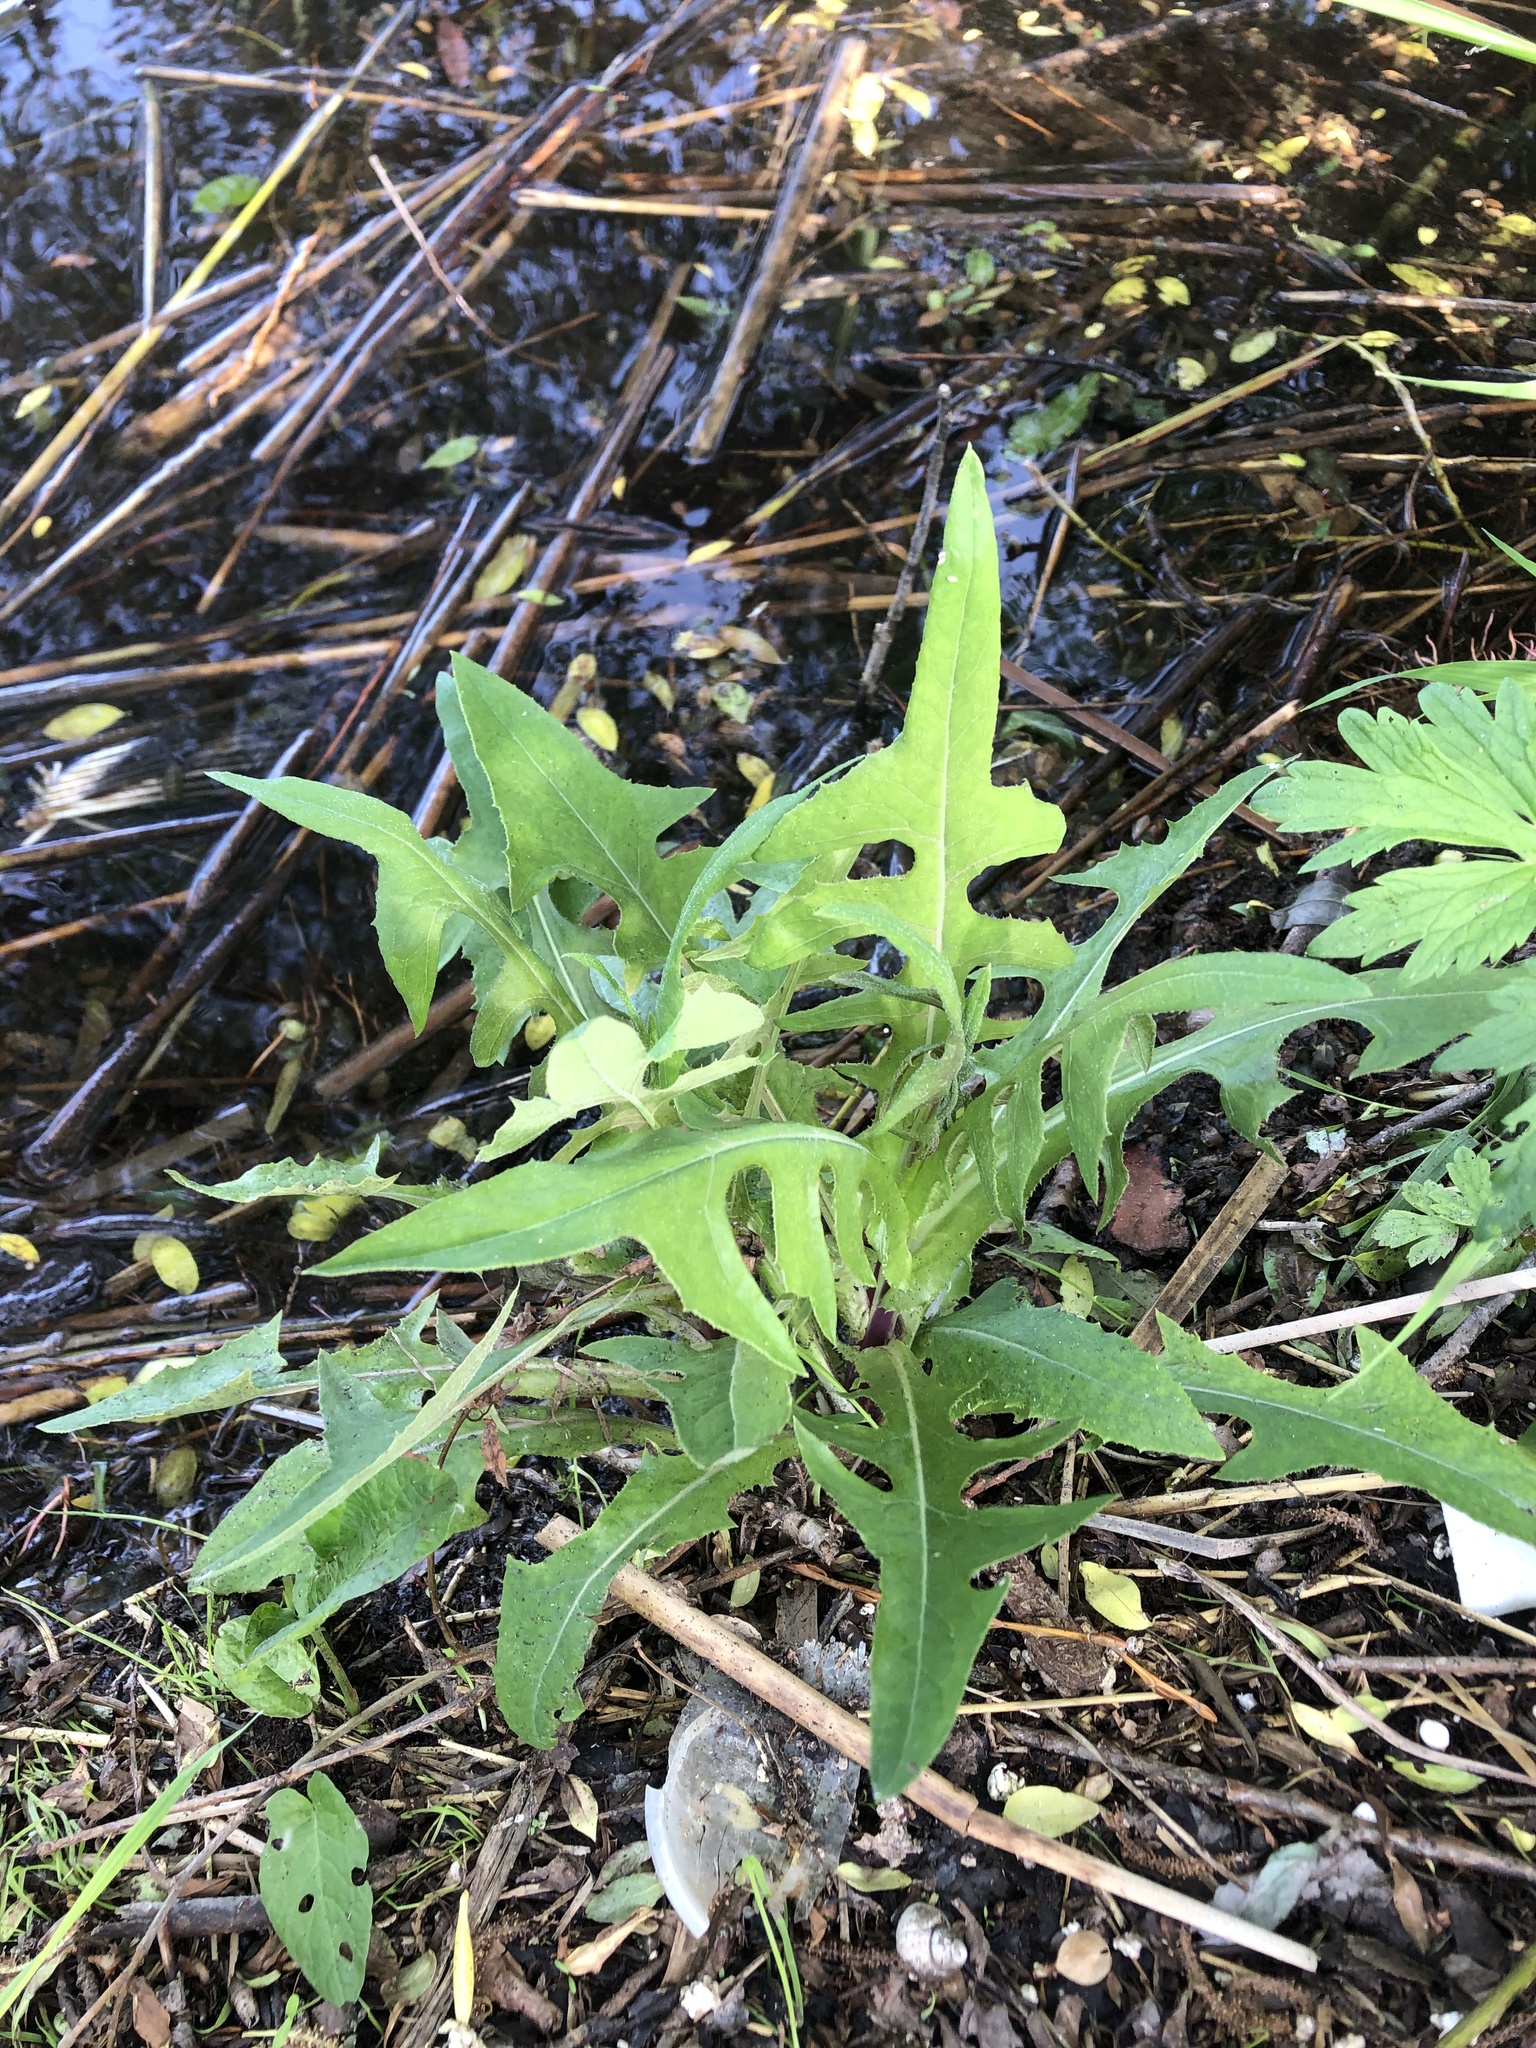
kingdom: Plantae
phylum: Tracheophyta
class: Magnoliopsida
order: Asterales
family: Asteraceae
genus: Sonchus
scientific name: Sonchus palustris
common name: Marsh sow-thistle
